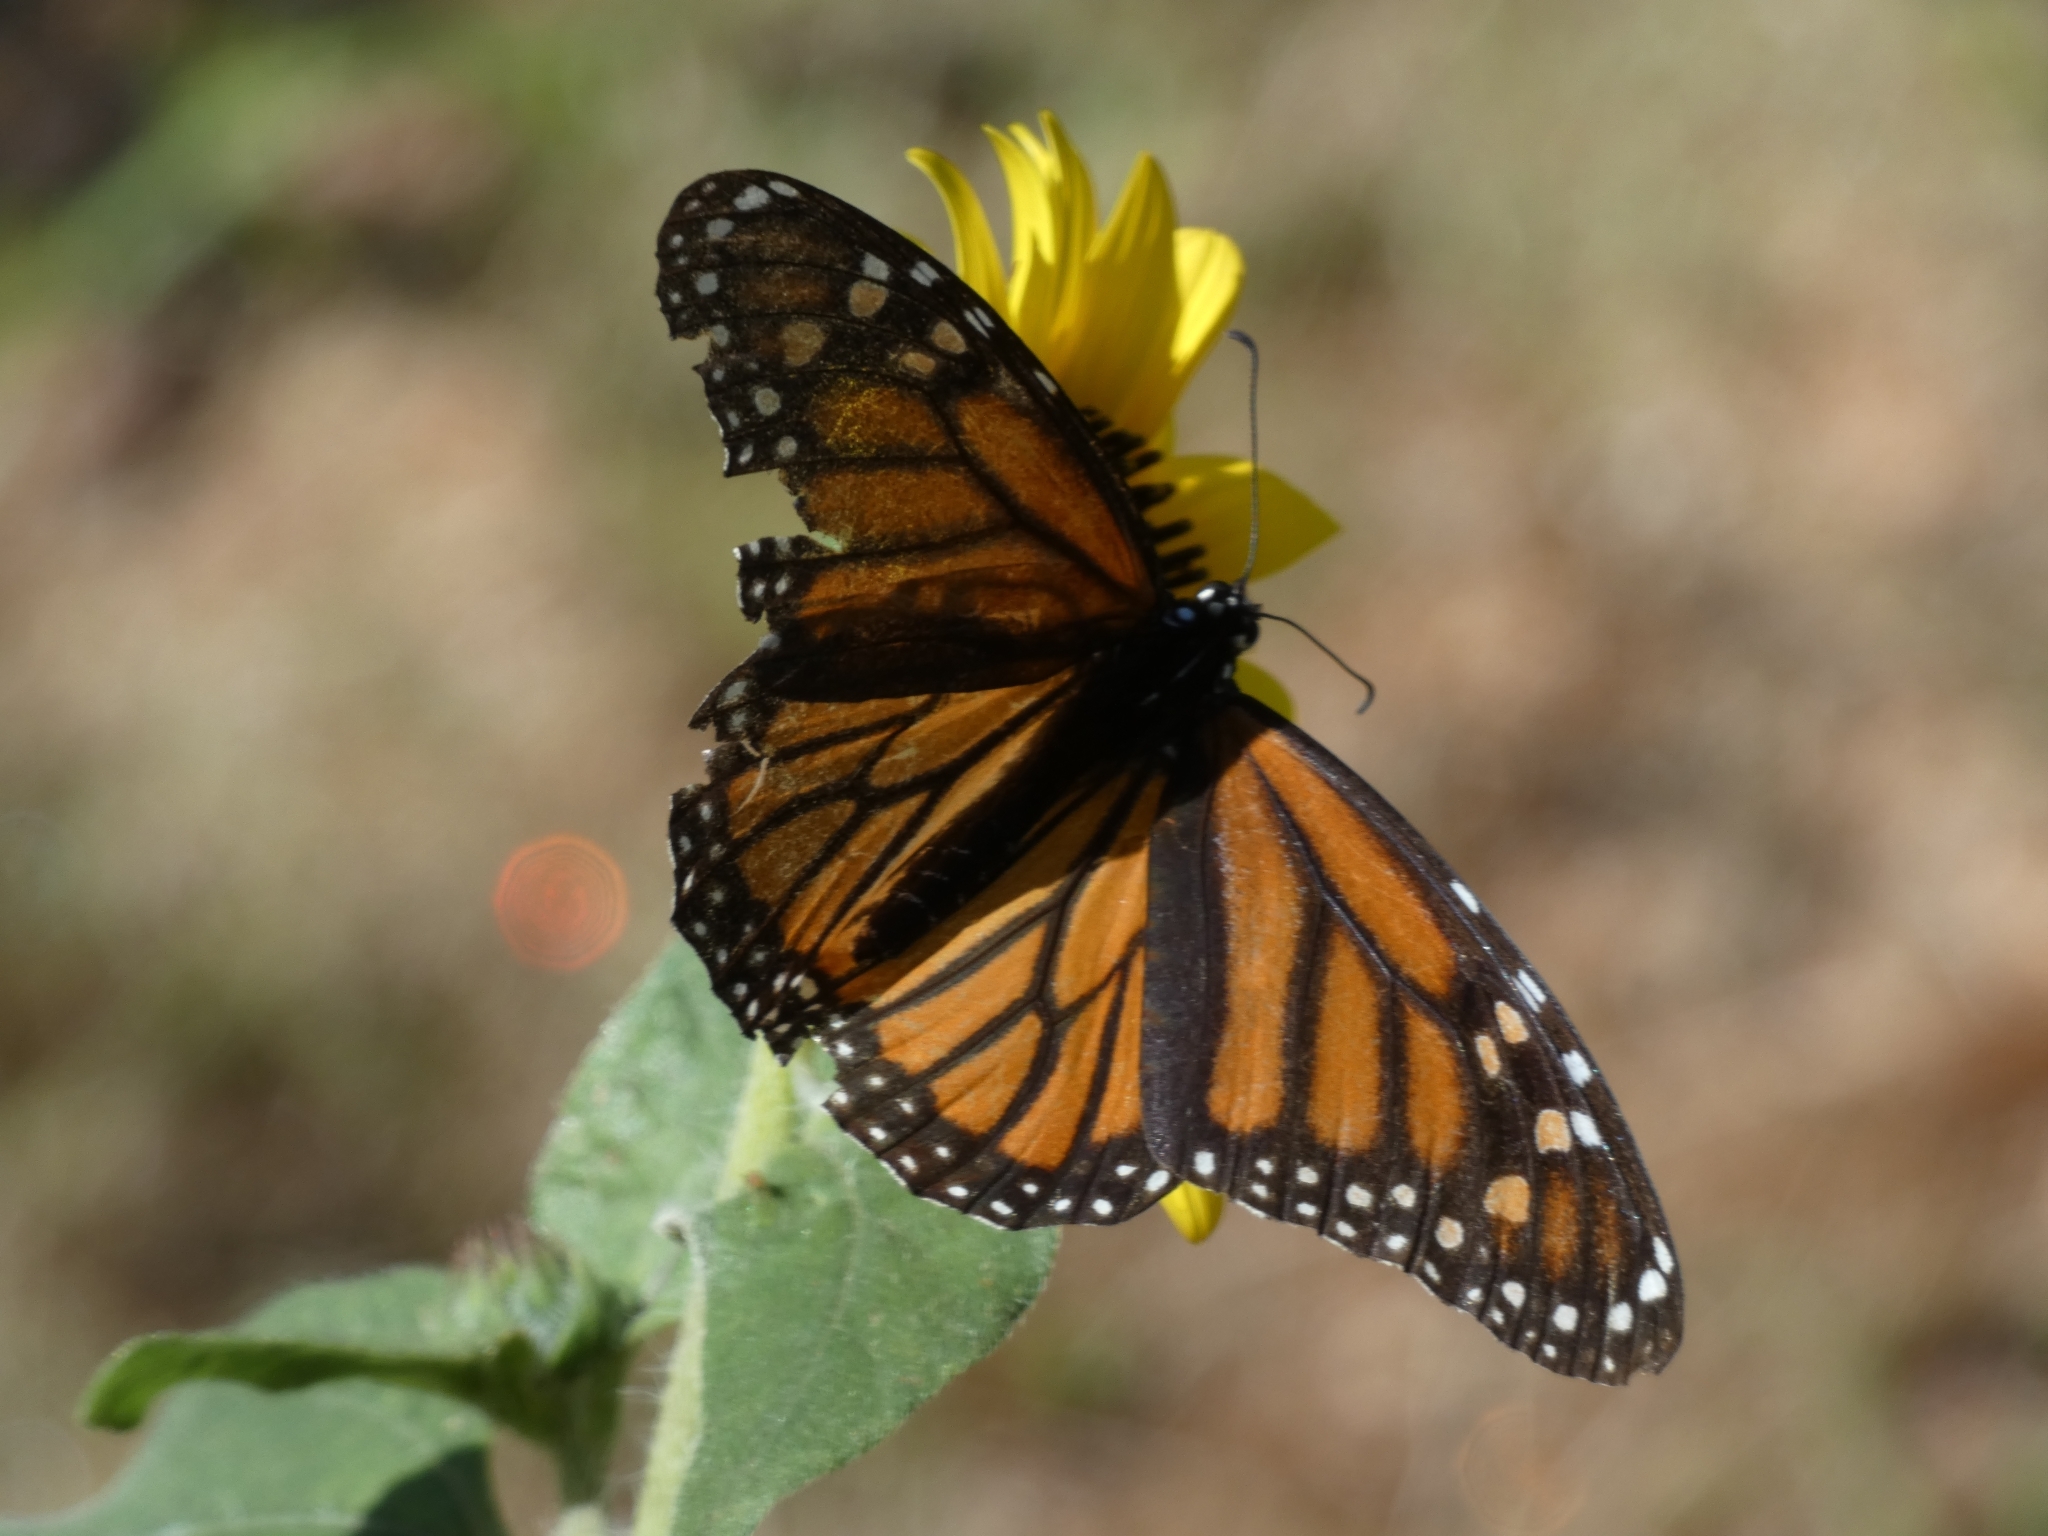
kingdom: Animalia
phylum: Arthropoda
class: Insecta
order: Lepidoptera
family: Nymphalidae
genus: Danaus
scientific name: Danaus plexippus
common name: Monarch
